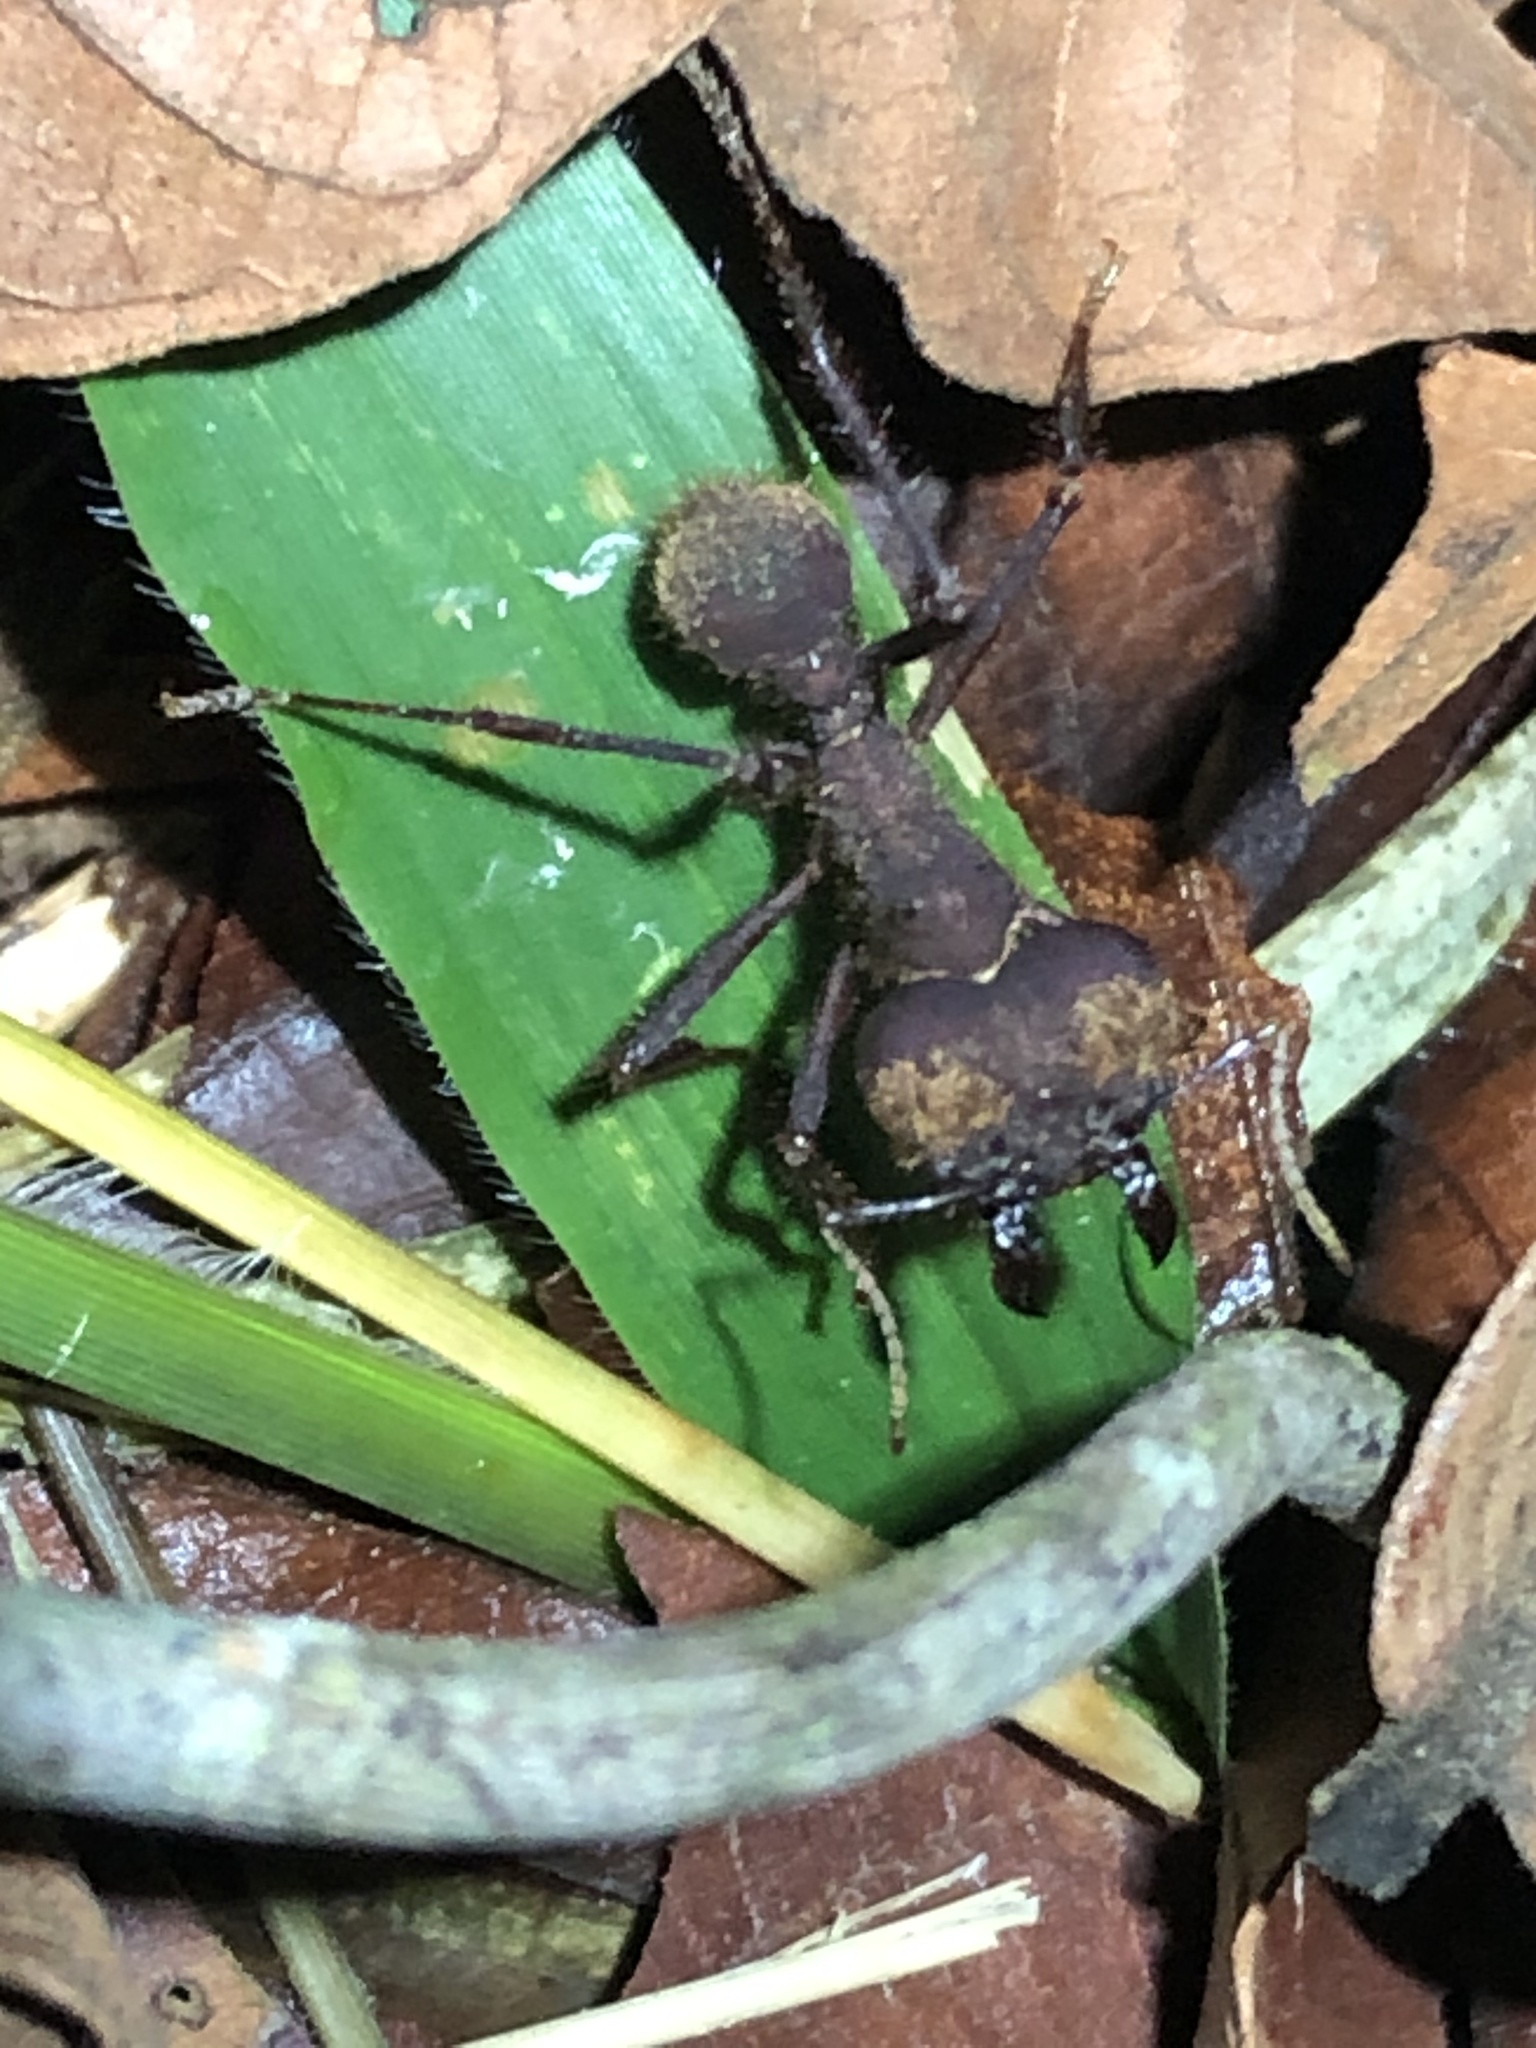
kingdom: Animalia
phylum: Arthropoda
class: Insecta
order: Hymenoptera
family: Formicidae
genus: Atta
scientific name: Atta cephalotes
